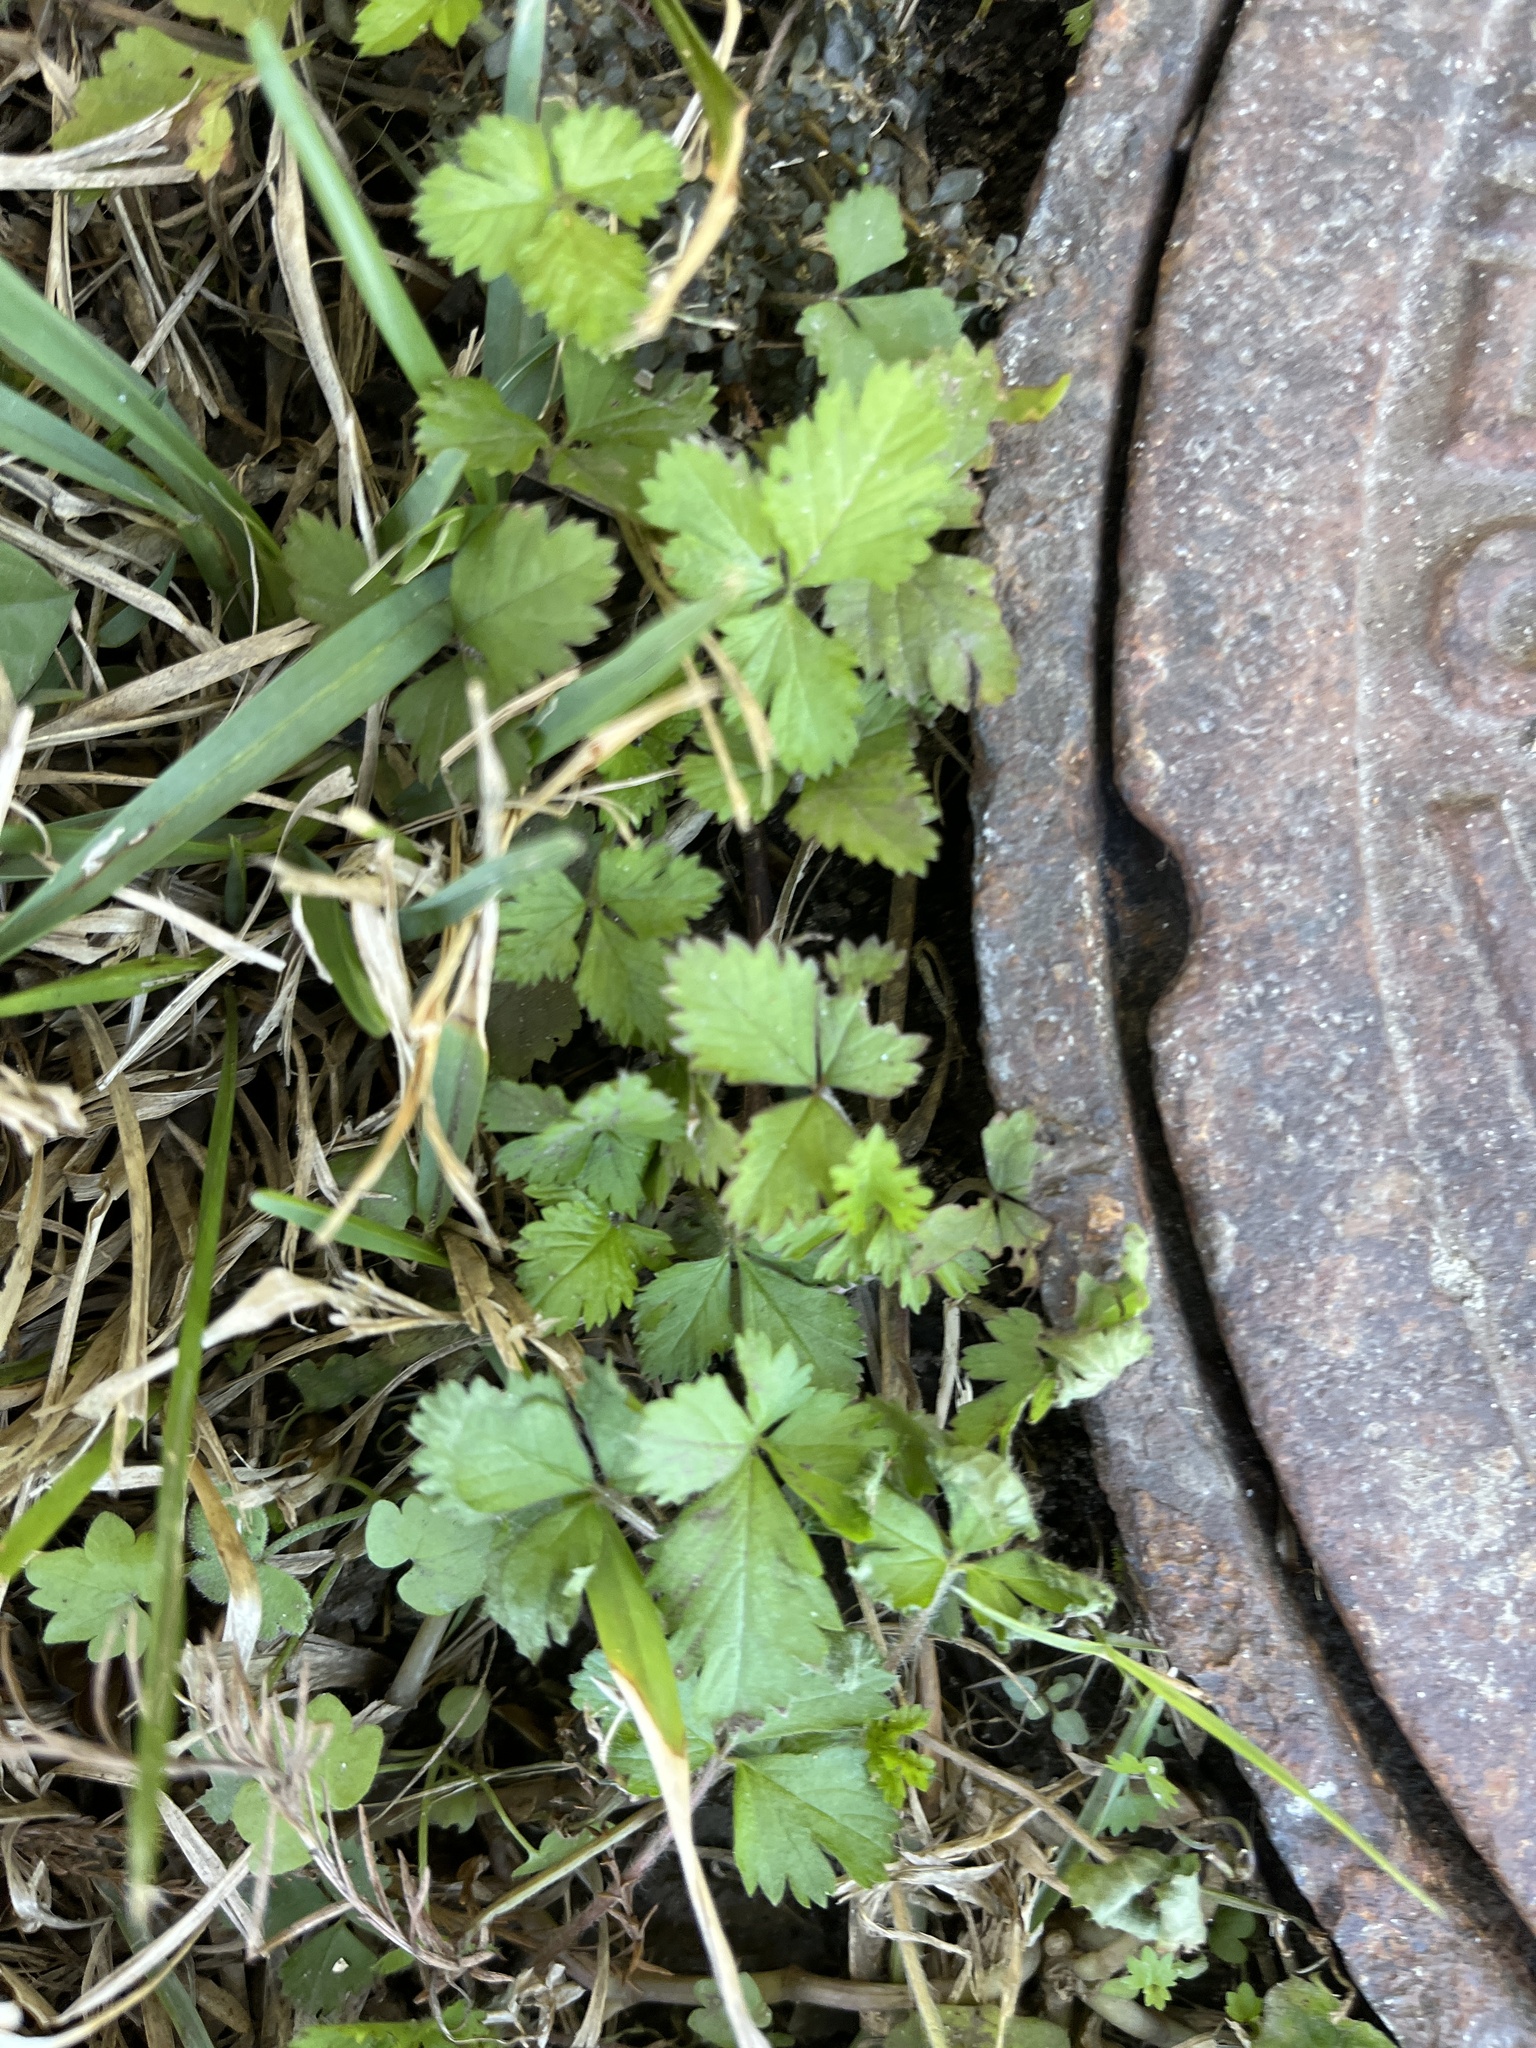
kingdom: Plantae
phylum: Tracheophyta
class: Magnoliopsida
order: Rosales
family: Rosaceae
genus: Potentilla
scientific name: Potentilla indica
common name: Yellow-flowered strawberry
